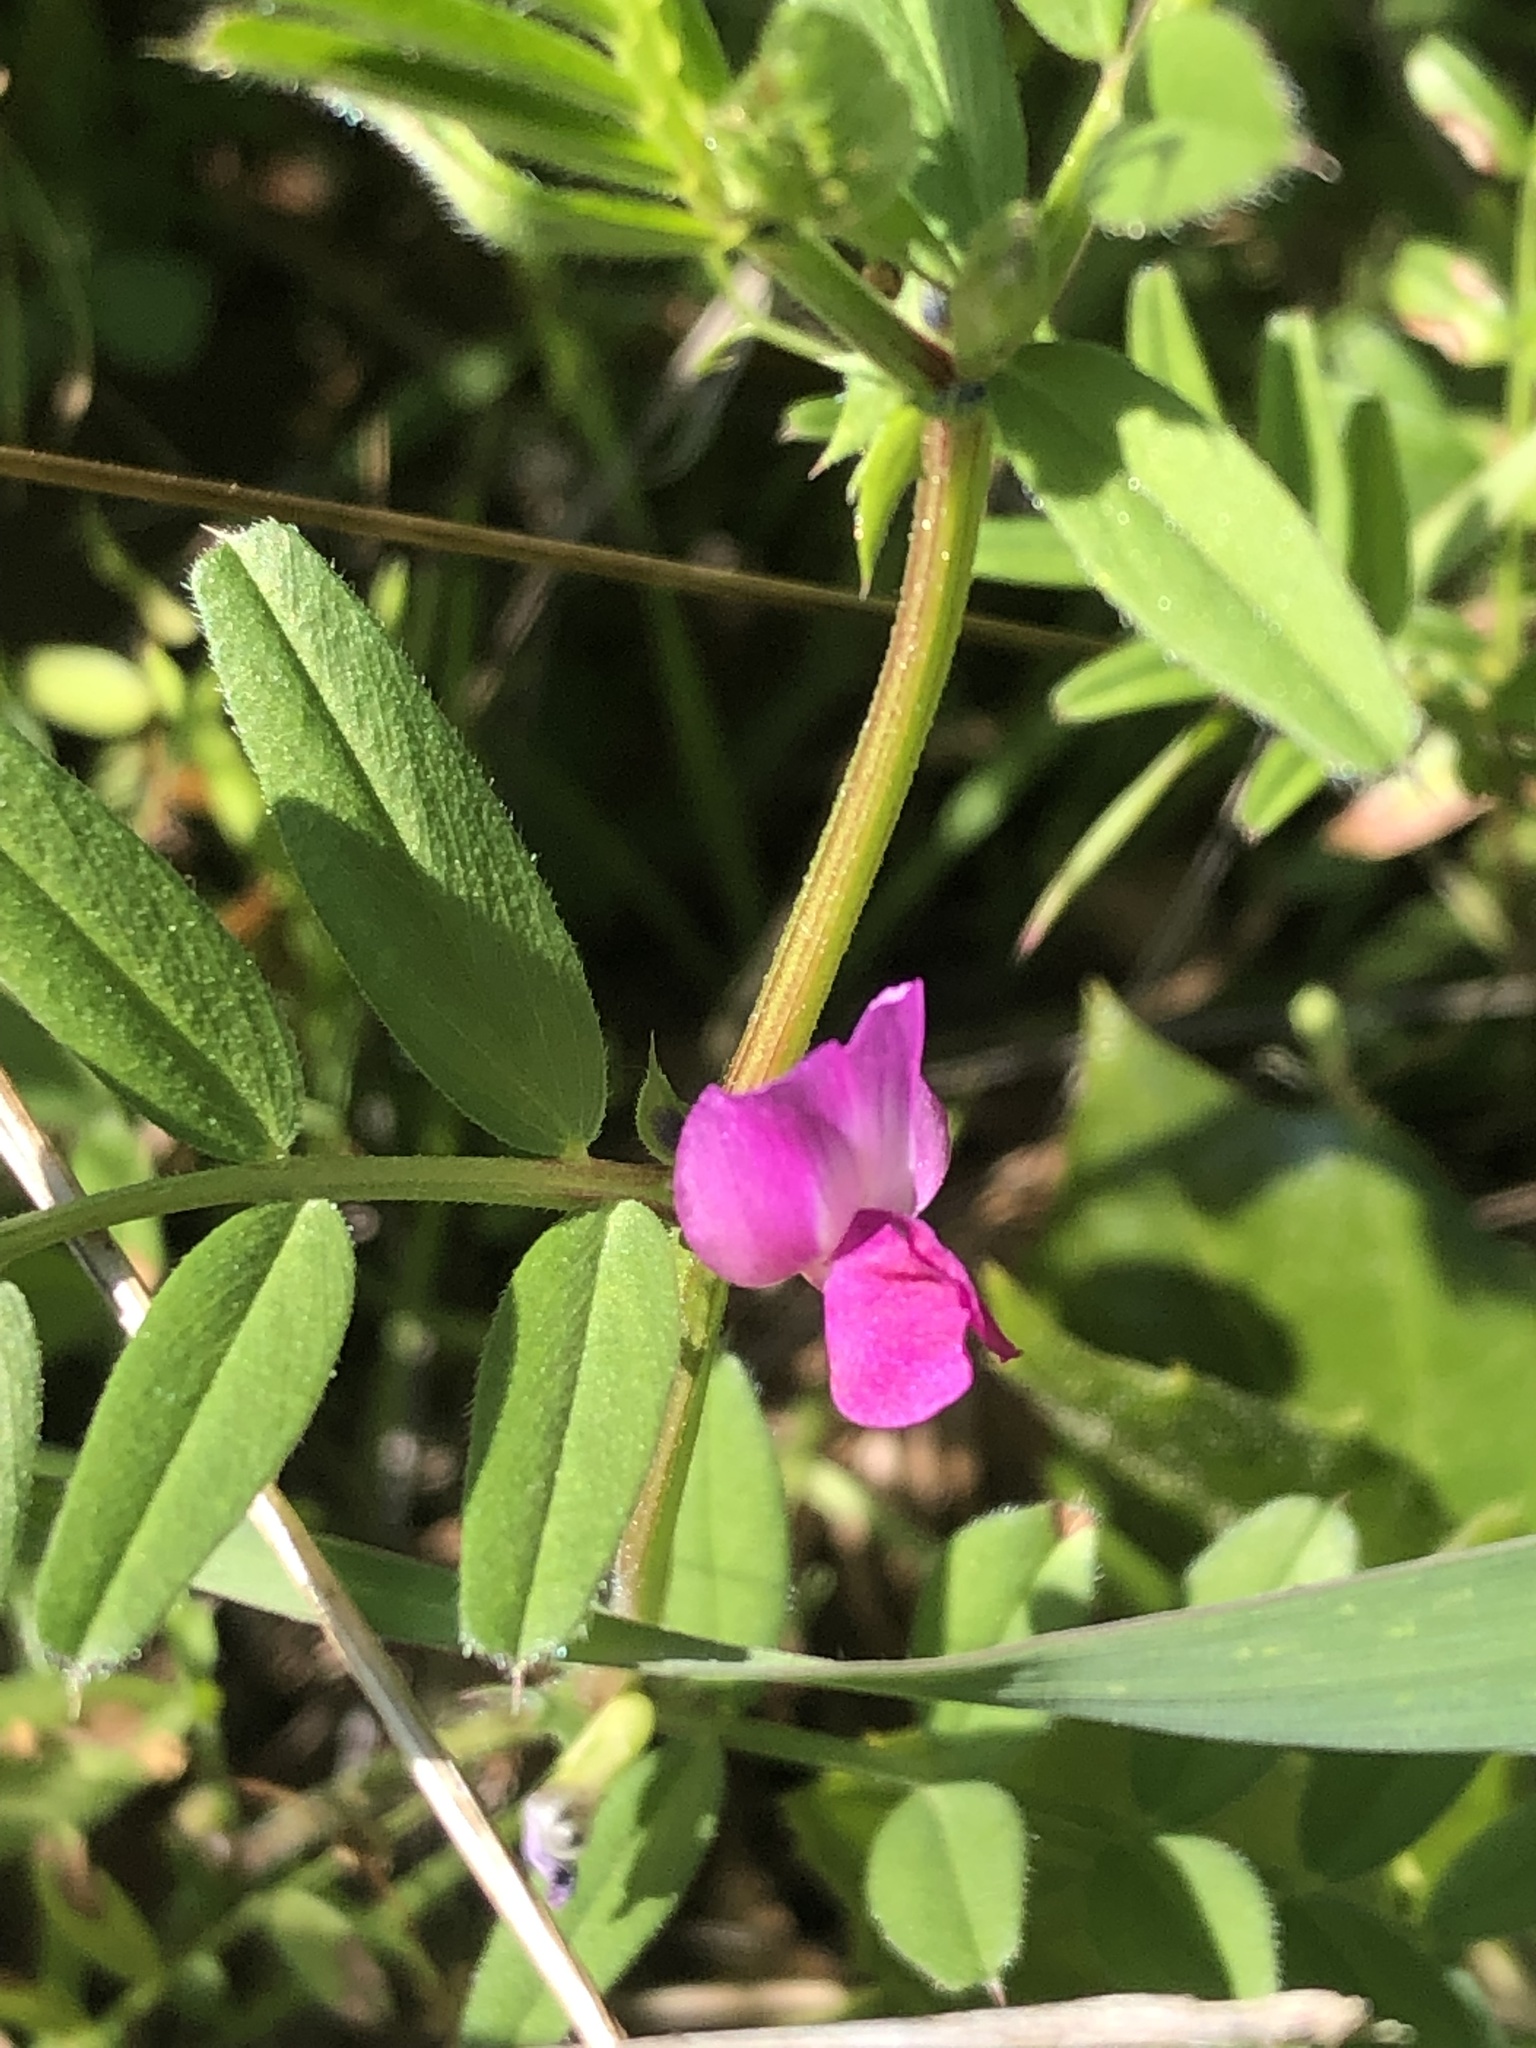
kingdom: Plantae
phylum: Tracheophyta
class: Magnoliopsida
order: Fabales
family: Fabaceae
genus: Vicia
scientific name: Vicia sativa
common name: Garden vetch
